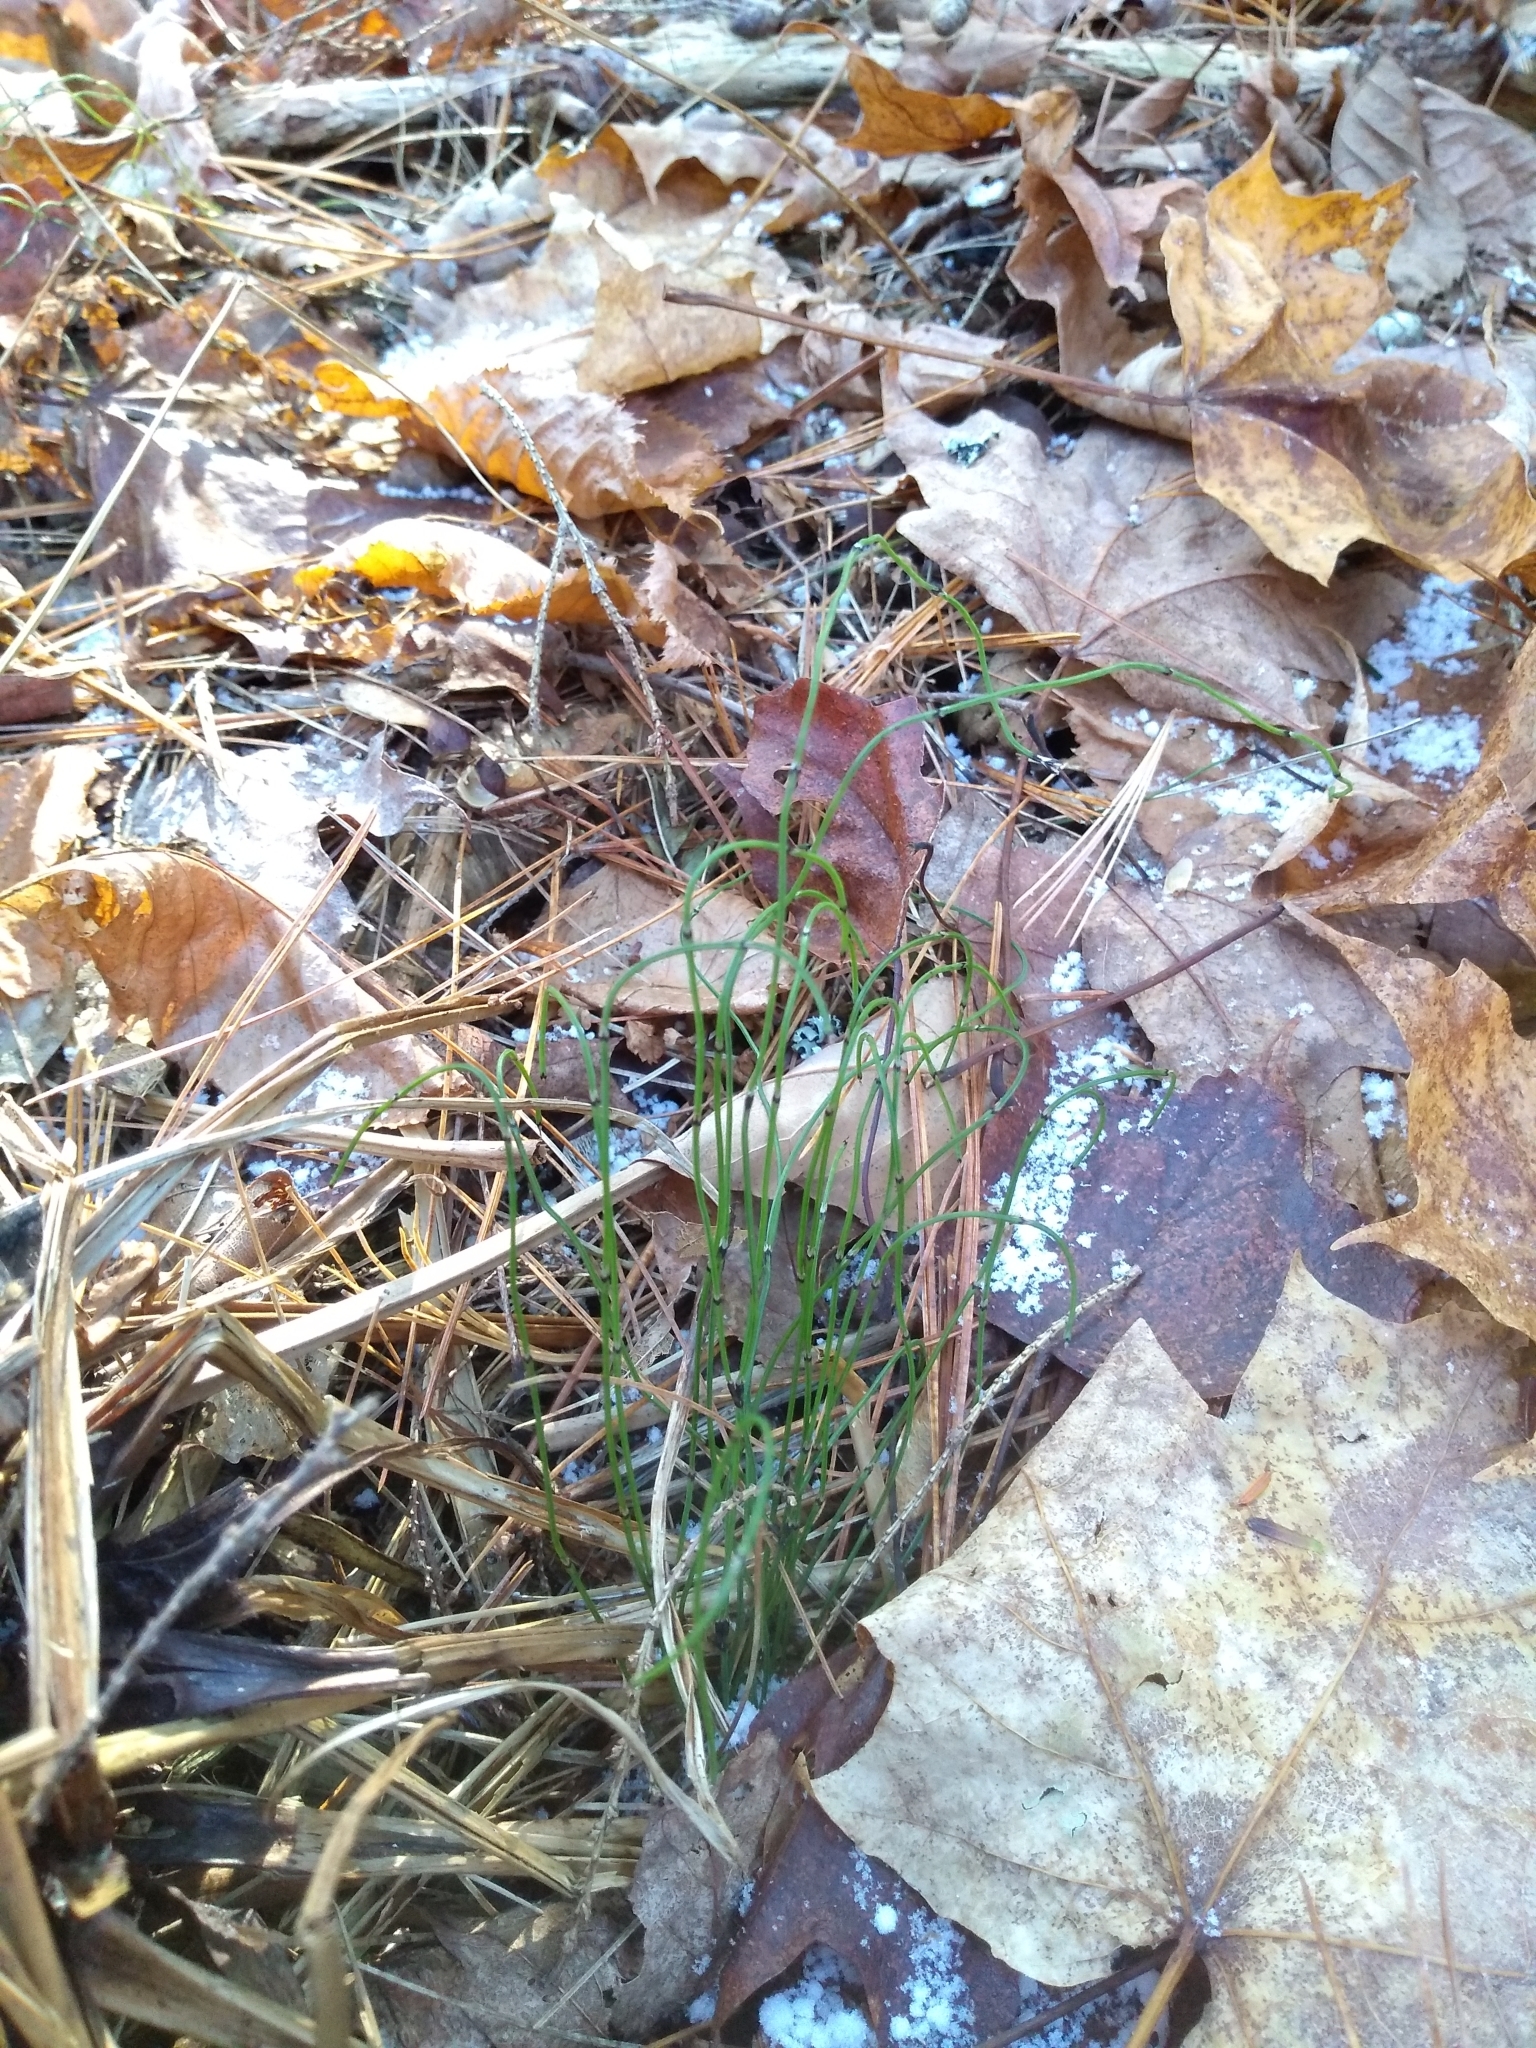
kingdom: Plantae
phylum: Tracheophyta
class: Polypodiopsida
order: Equisetales
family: Equisetaceae
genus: Equisetum
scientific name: Equisetum scirpoides
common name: Delicate horsetail
